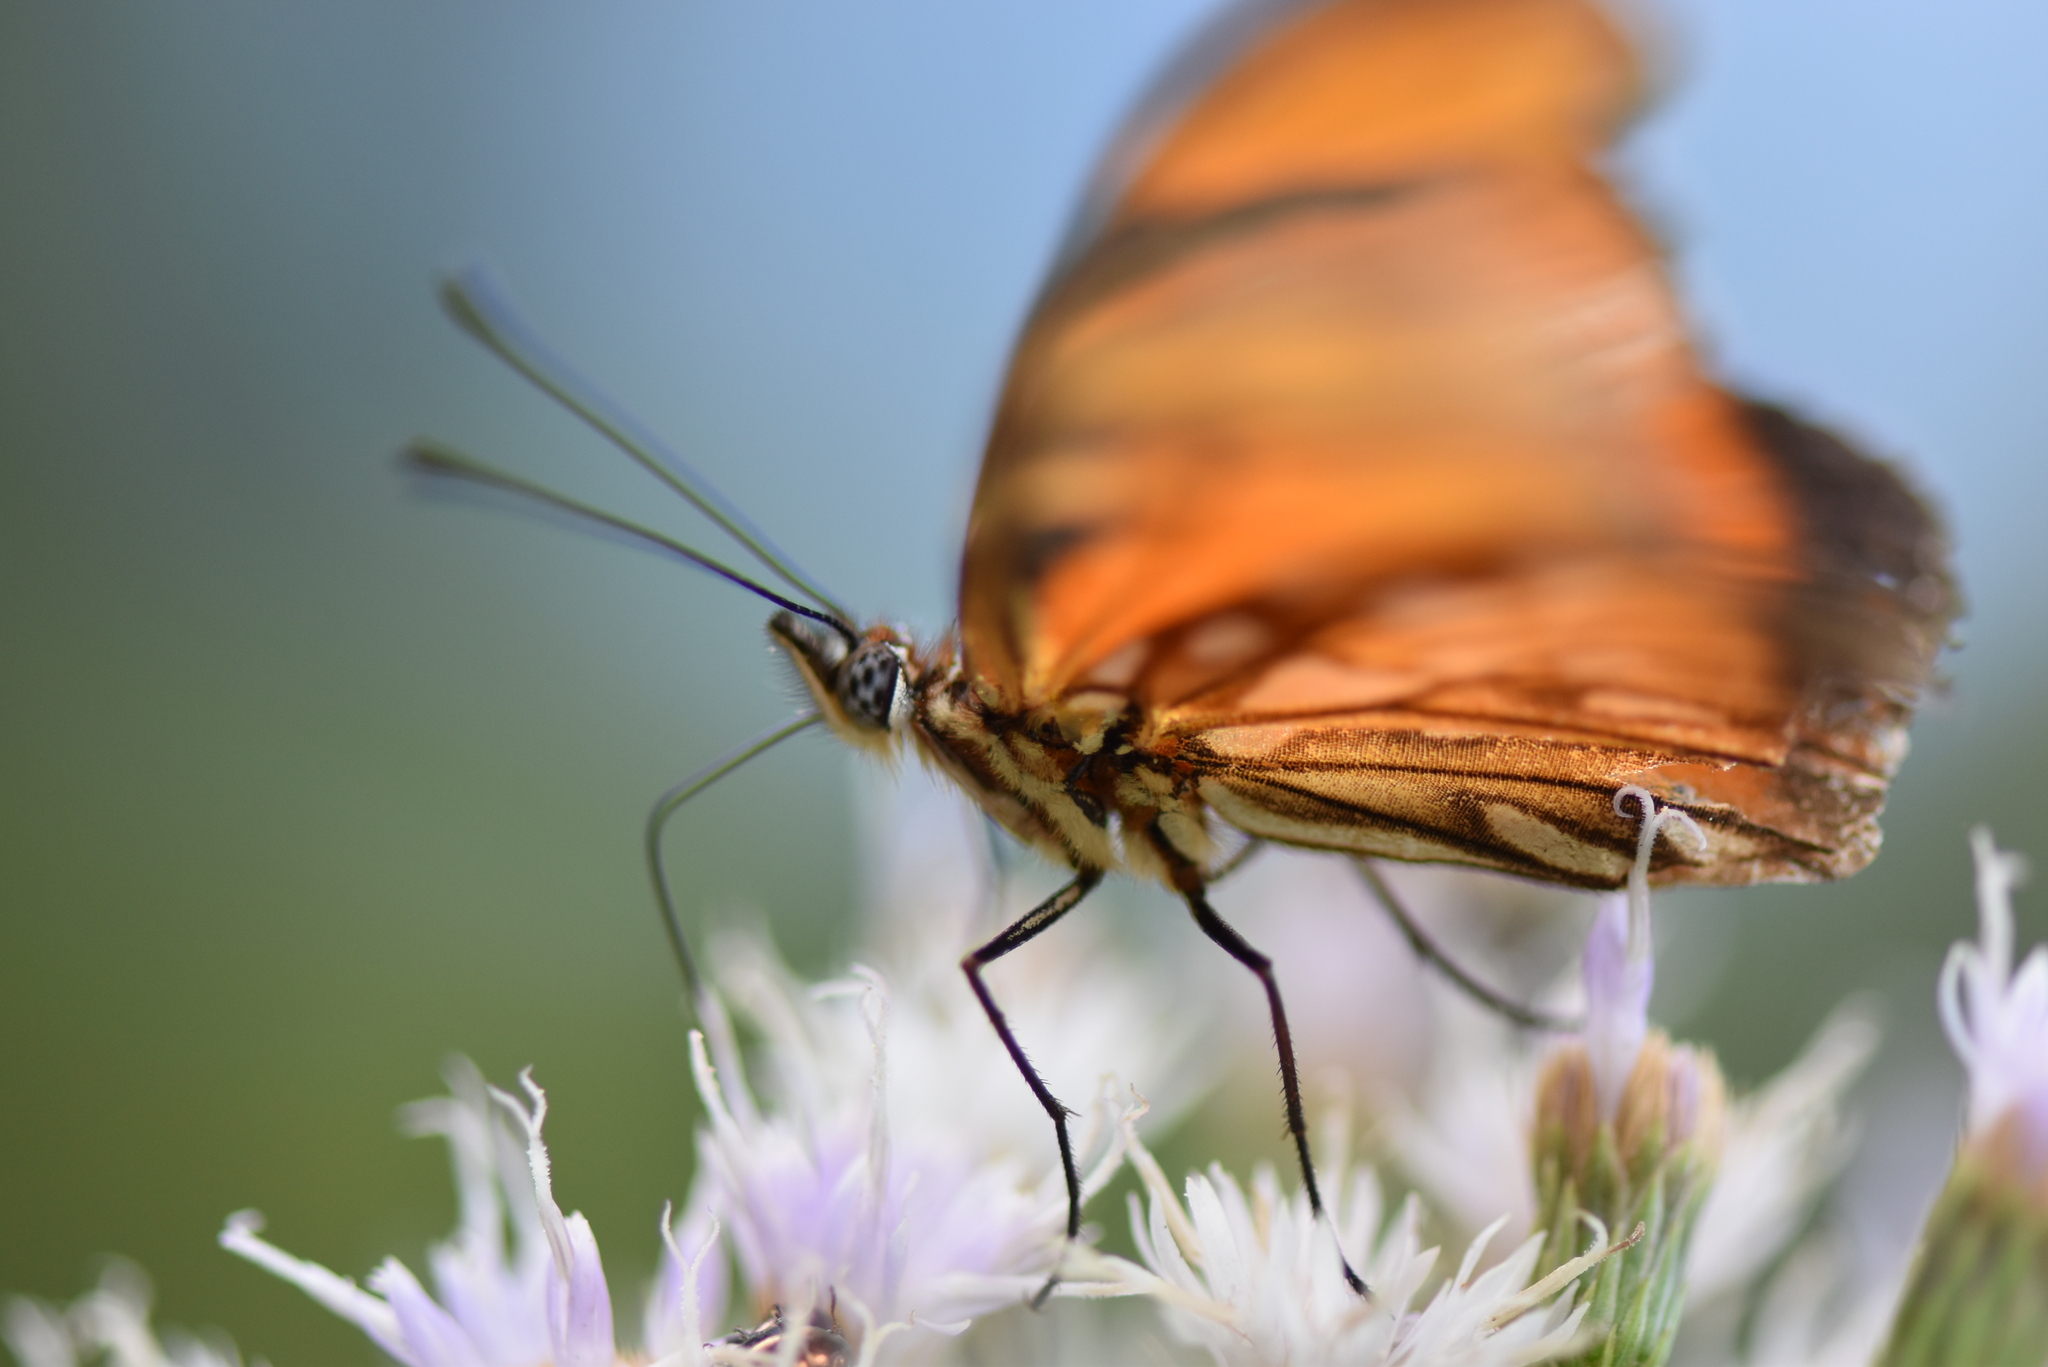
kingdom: Animalia
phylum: Arthropoda
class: Insecta
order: Lepidoptera
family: Nymphalidae
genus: Dione
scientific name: Dione juno
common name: Juno silverspot
